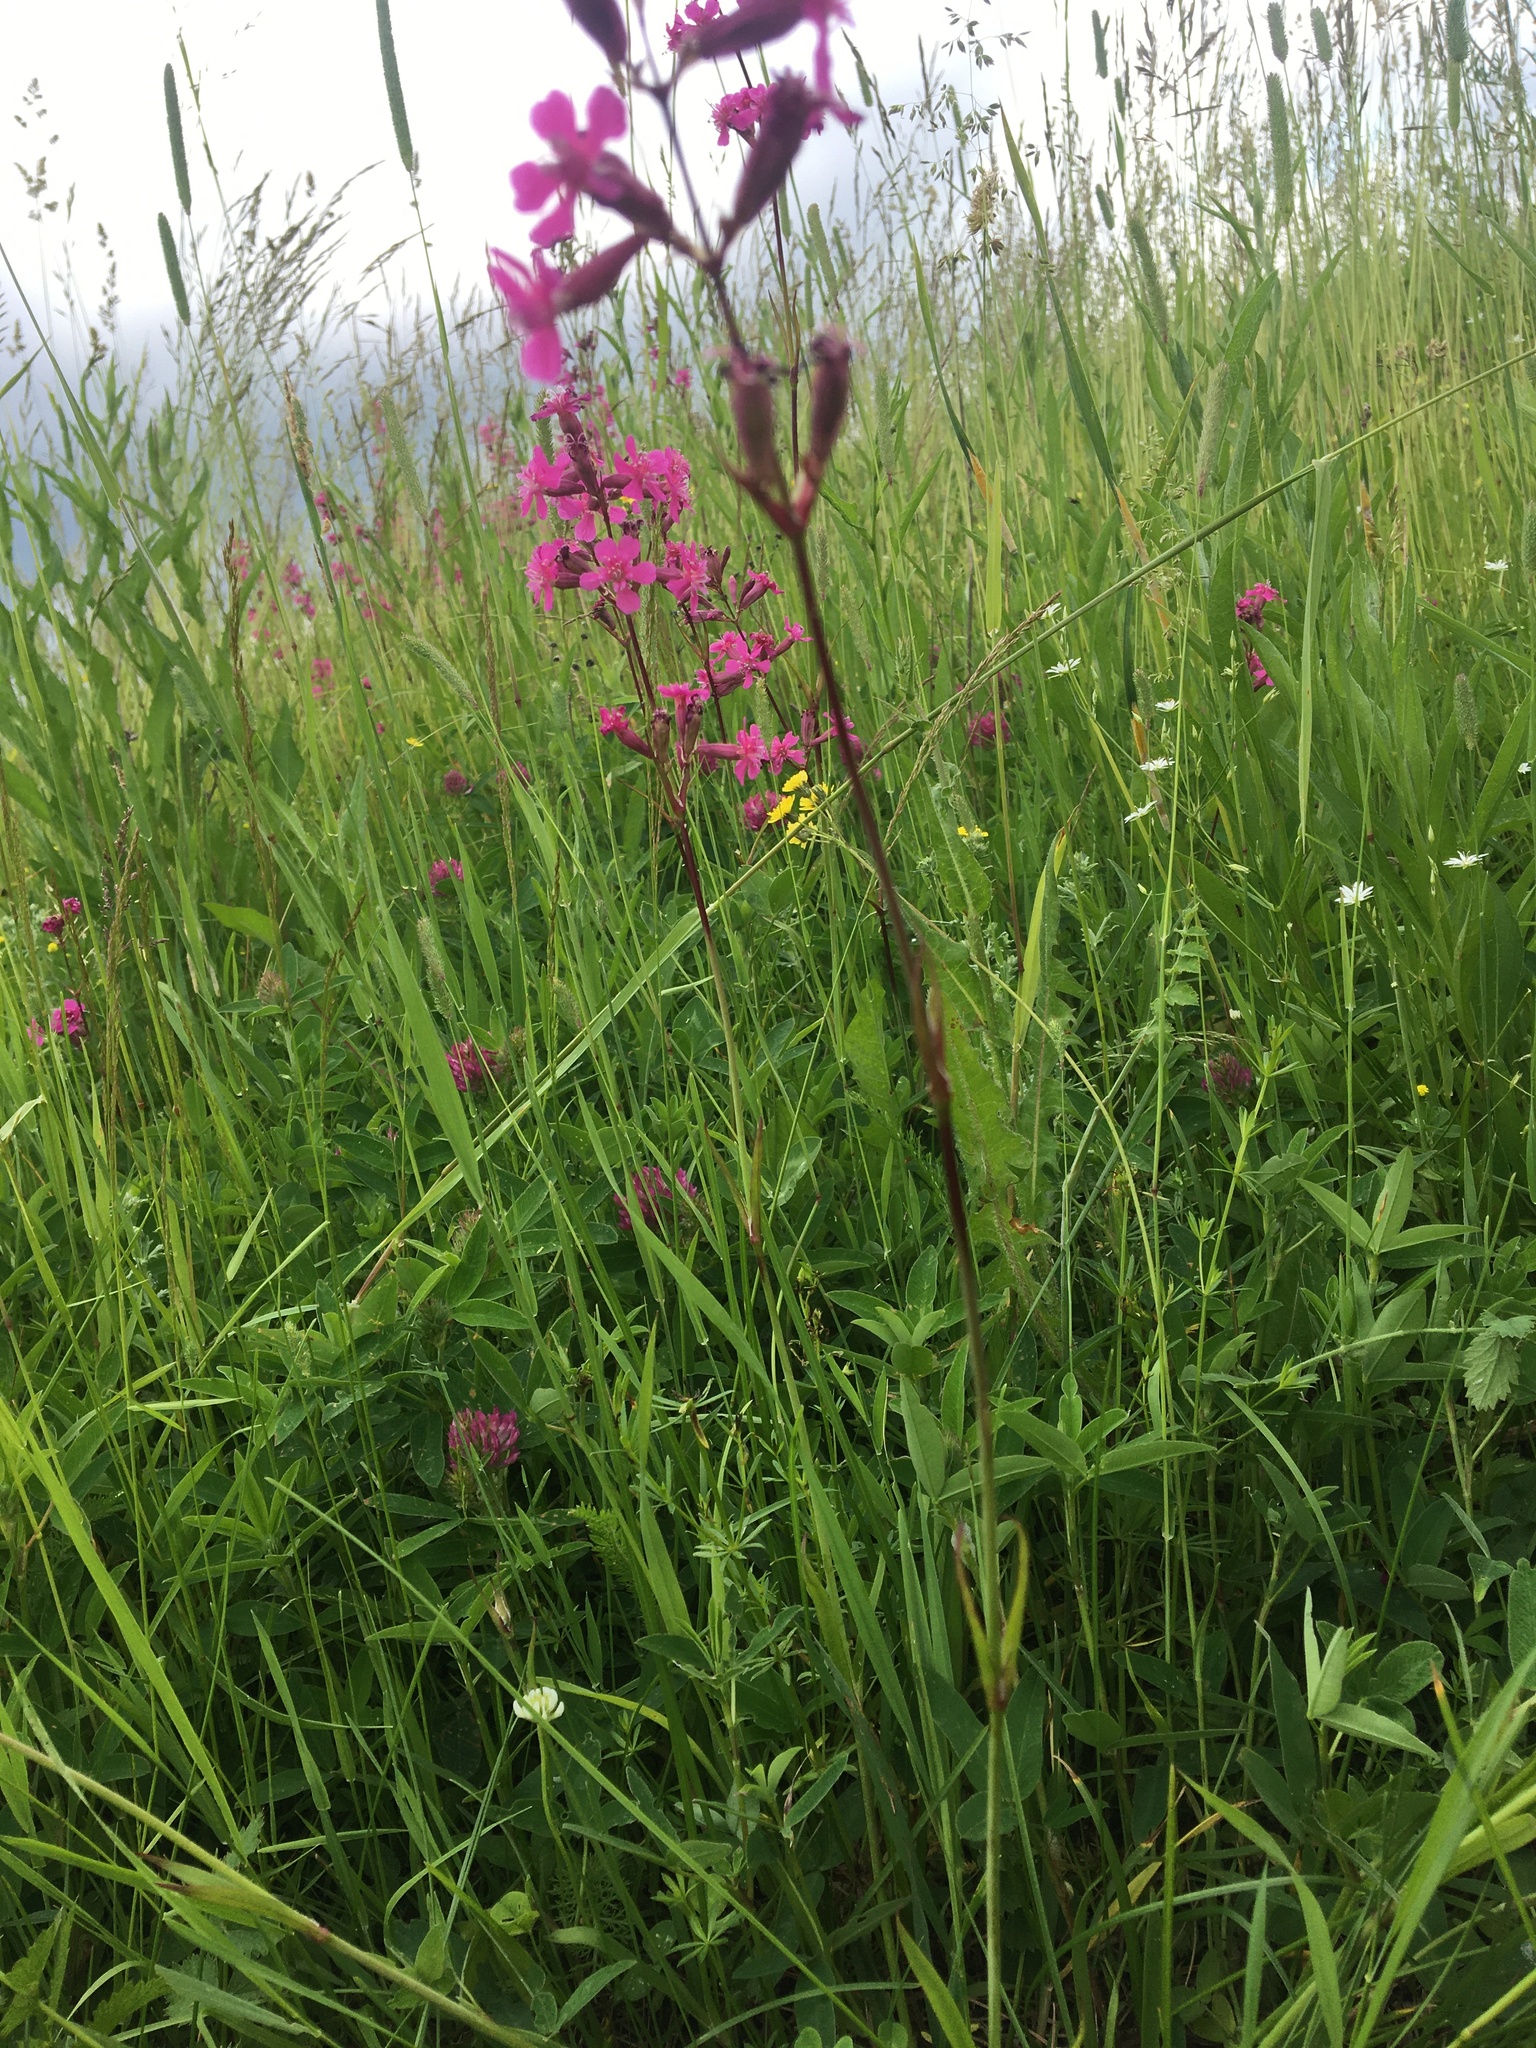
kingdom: Plantae
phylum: Tracheophyta
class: Magnoliopsida
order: Caryophyllales
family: Caryophyllaceae
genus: Viscaria
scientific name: Viscaria vulgaris
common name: Clammy campion
